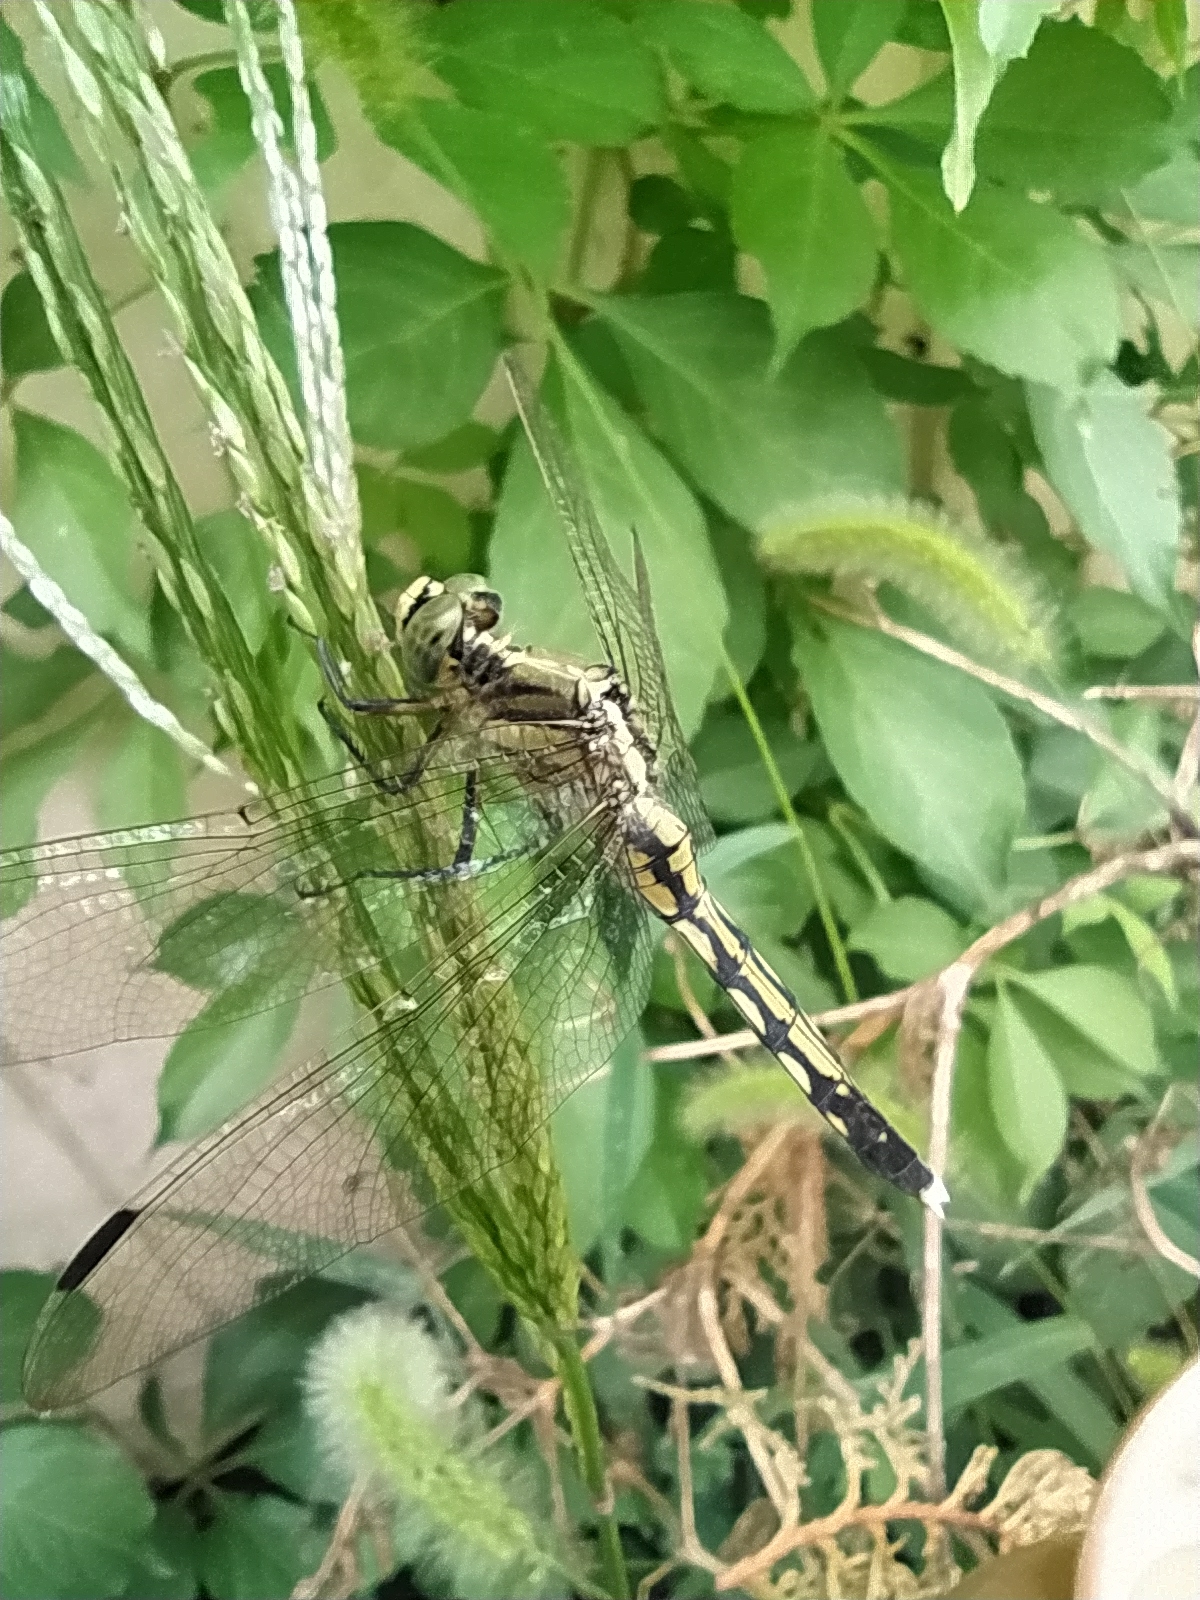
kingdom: Animalia
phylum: Arthropoda
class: Insecta
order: Odonata
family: Libellulidae
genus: Orthetrum
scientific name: Orthetrum albistylum
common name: White-tailed skimmer
